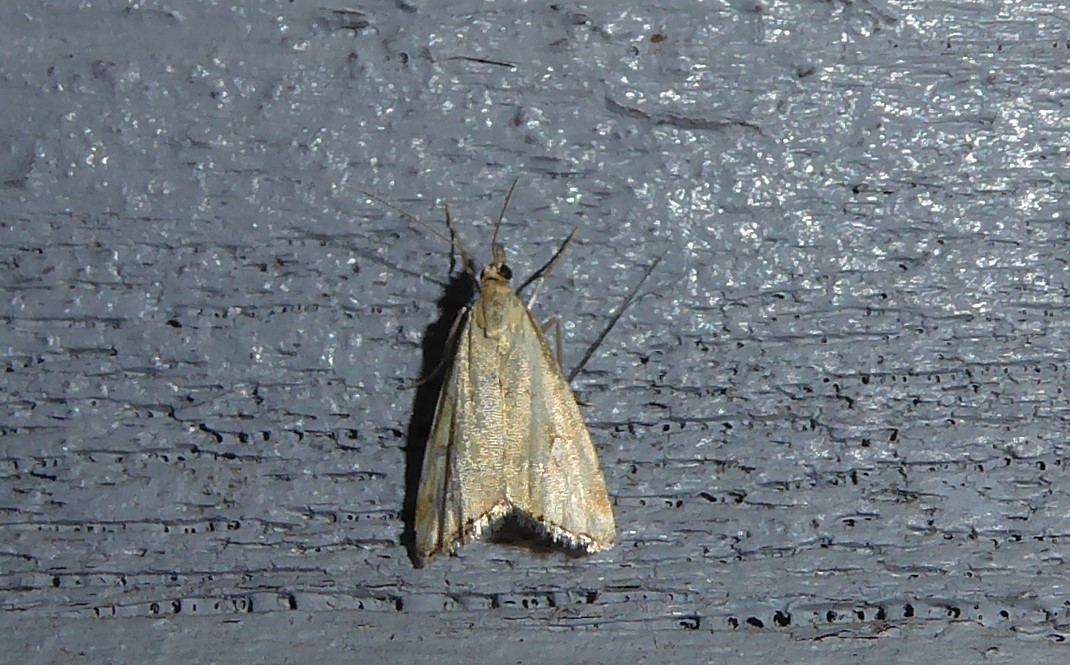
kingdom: Animalia
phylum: Arthropoda
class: Insecta
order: Lepidoptera
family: Crambidae
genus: Glaucocharis
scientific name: Glaucocharis lepidella
